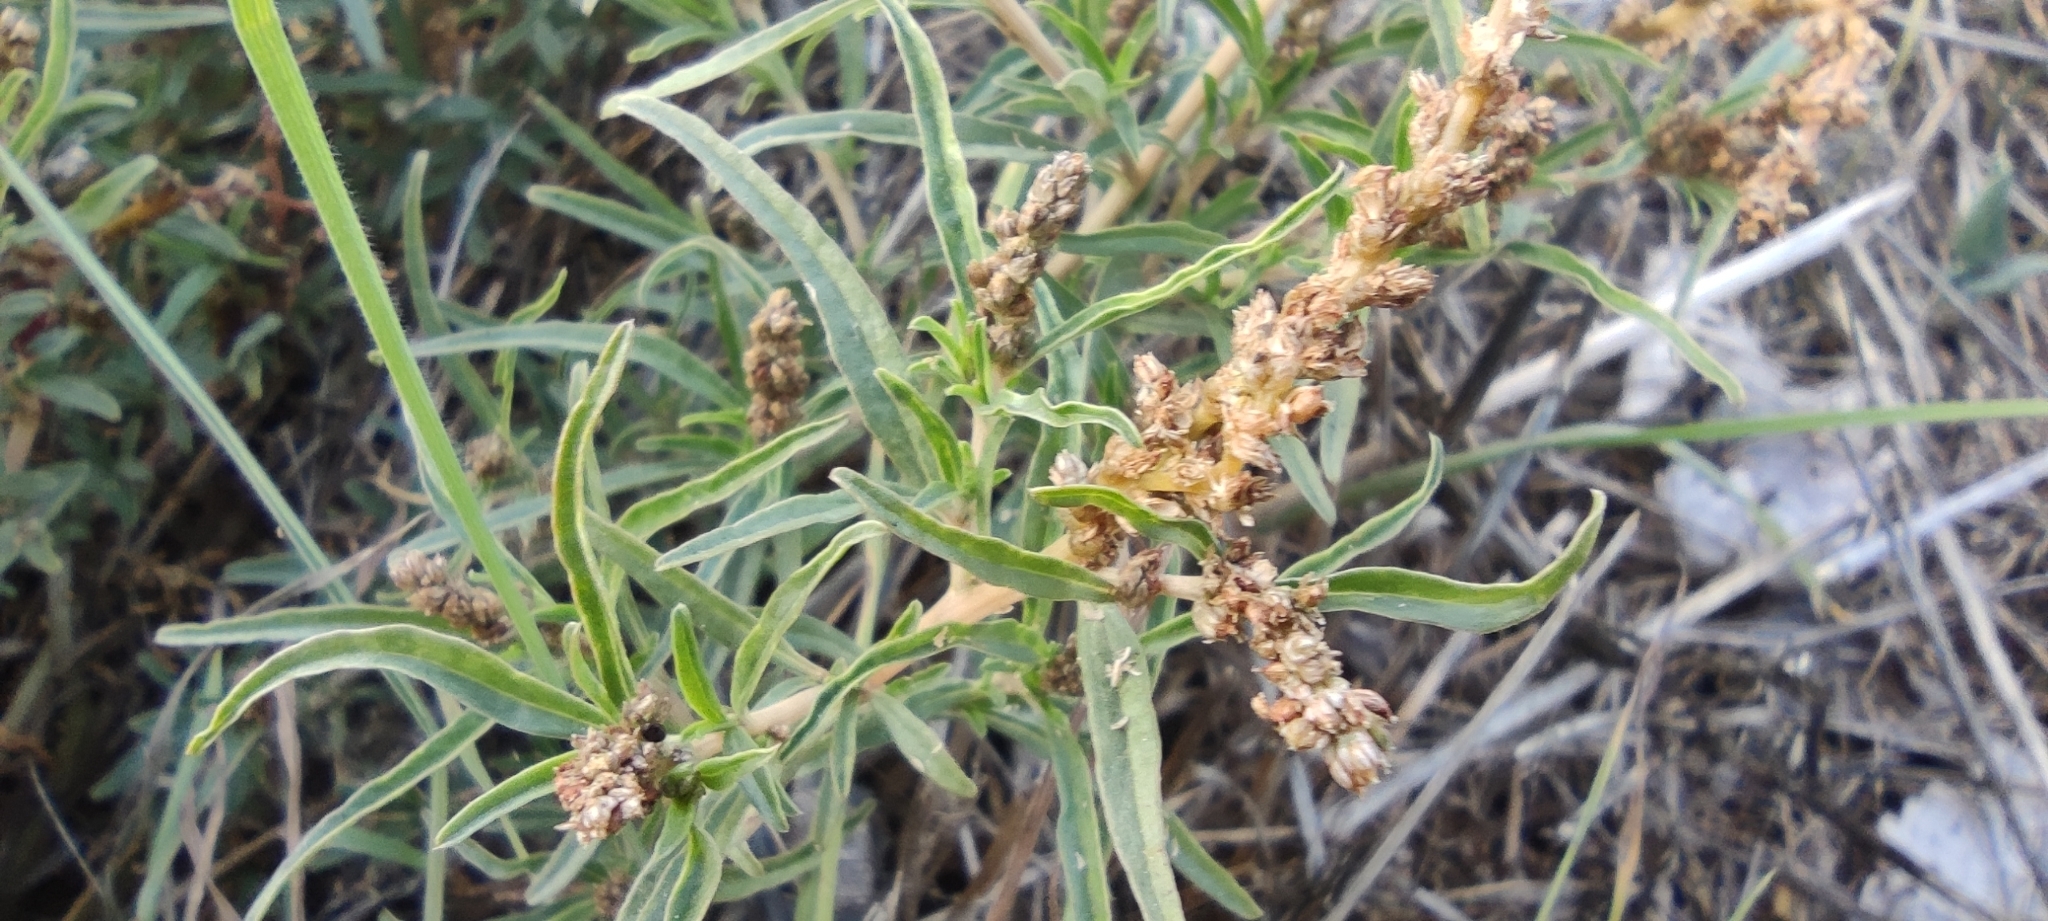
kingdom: Plantae
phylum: Tracheophyta
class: Magnoliopsida
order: Caryophyllales
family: Amaranthaceae
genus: Amaranthus
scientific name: Amaranthus muricatus
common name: African amaranth
